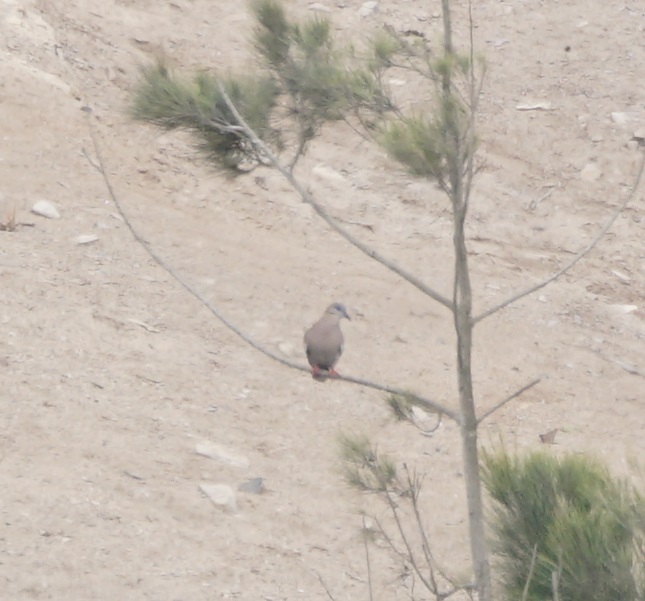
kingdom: Animalia
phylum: Chordata
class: Aves
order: Columbiformes
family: Columbidae
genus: Zenaida
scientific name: Zenaida meloda
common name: West peruvian dove
